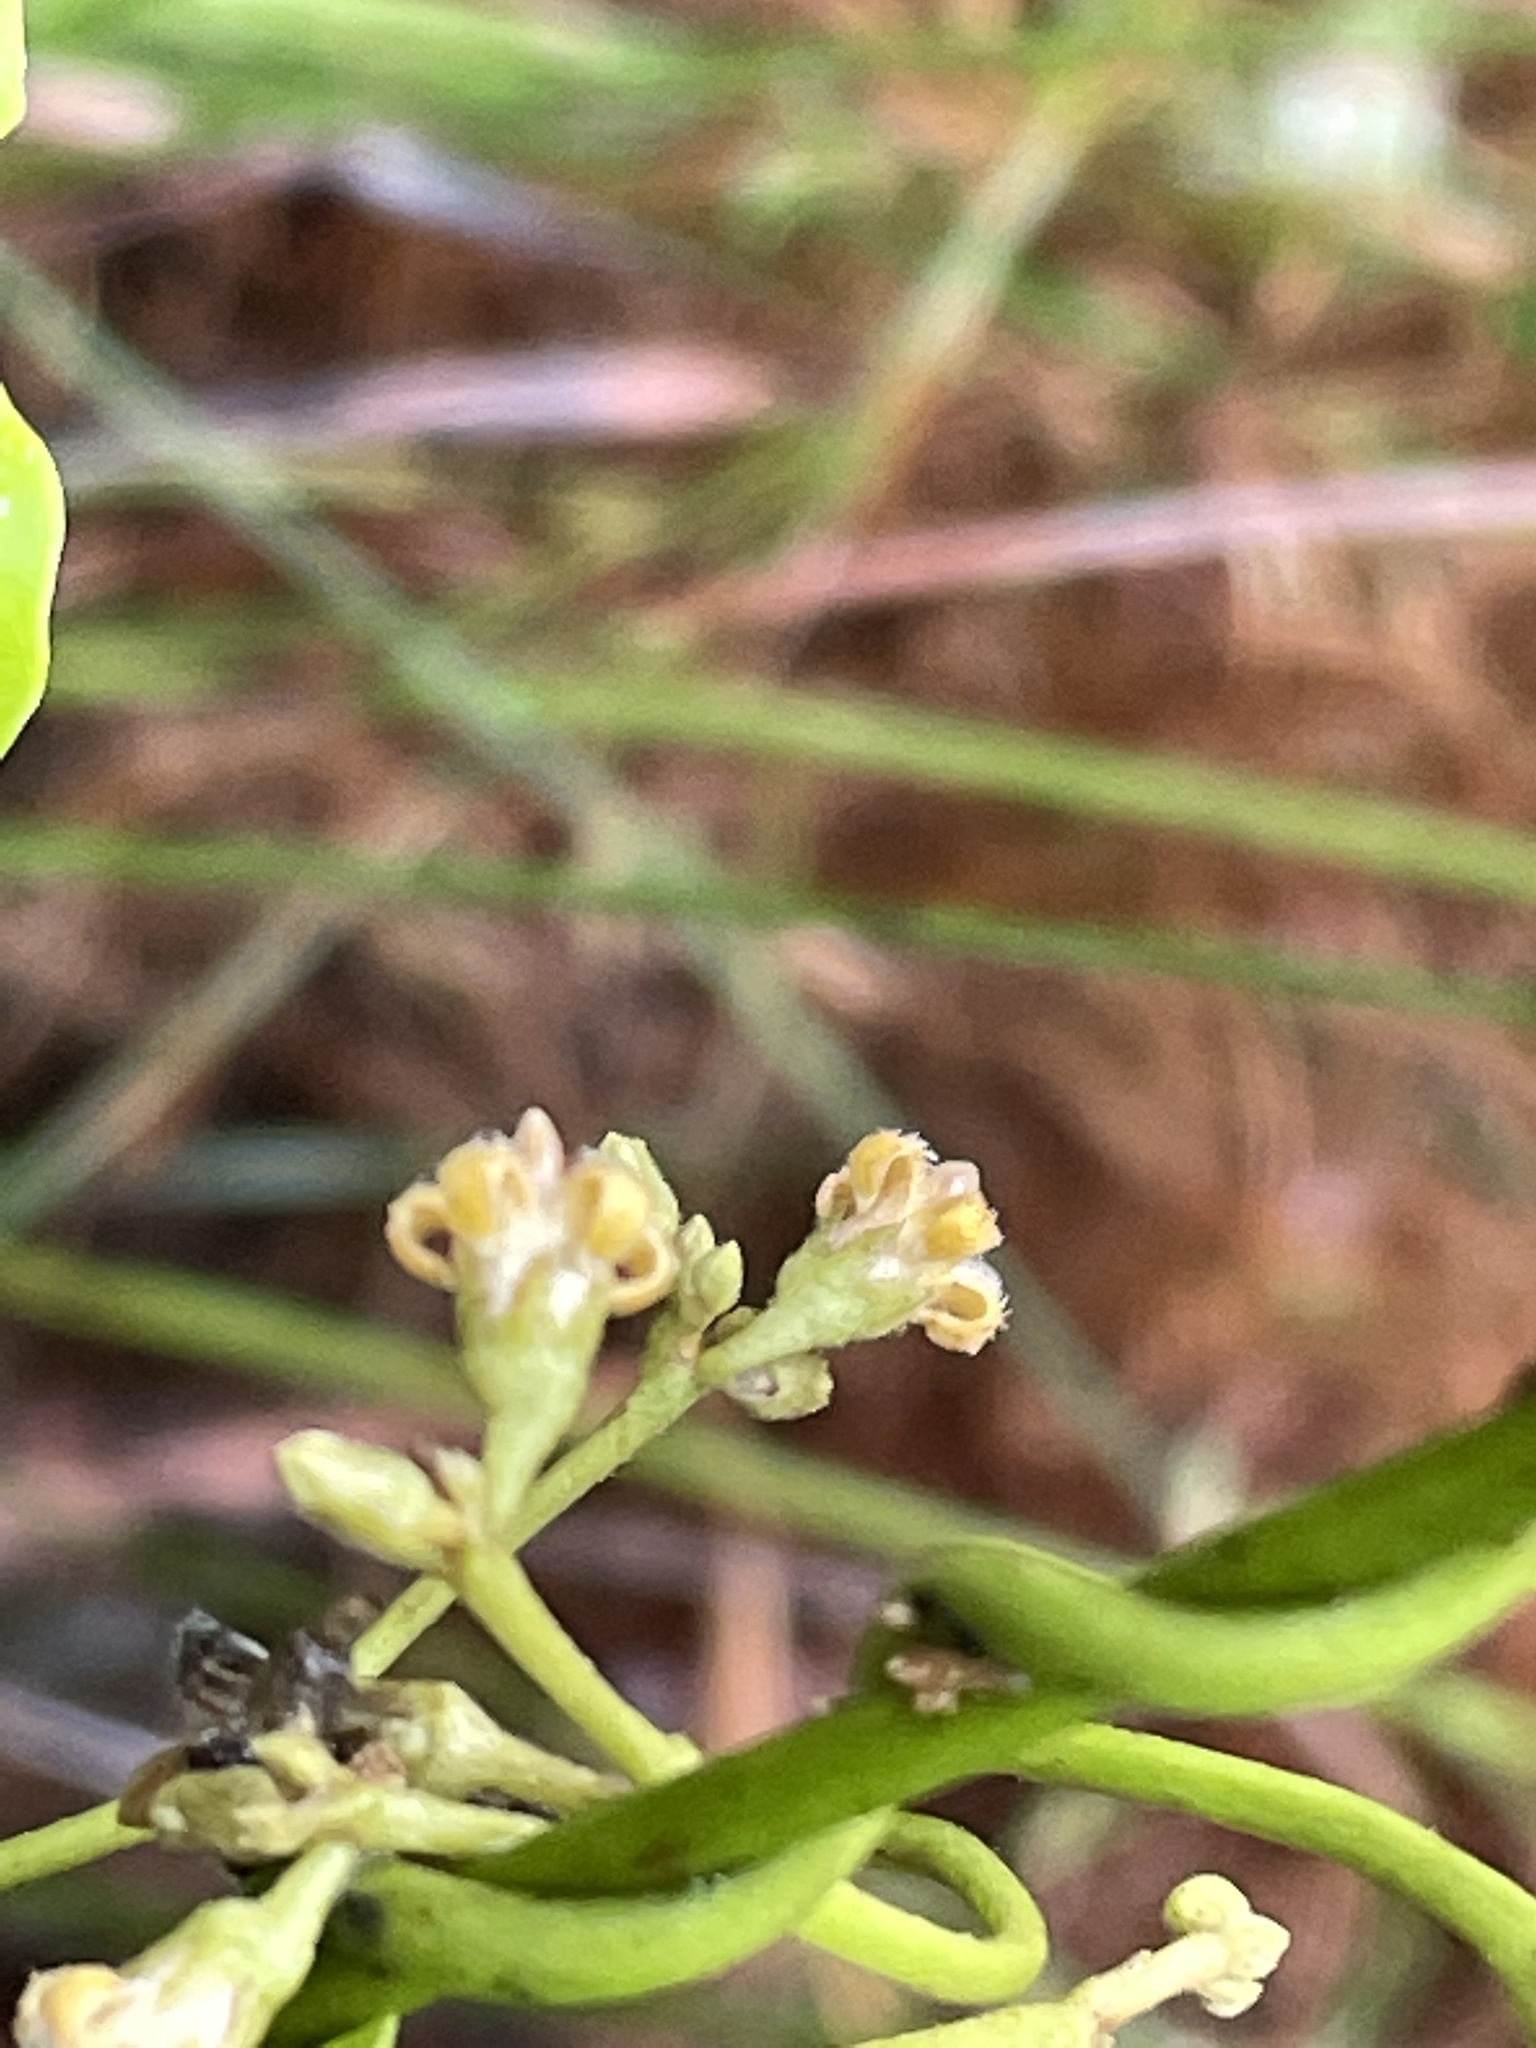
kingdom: Plantae
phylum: Tracheophyta
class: Magnoliopsida
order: Gentianales
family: Apocynaceae
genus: Parsonsia
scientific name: Parsonsia straminea
